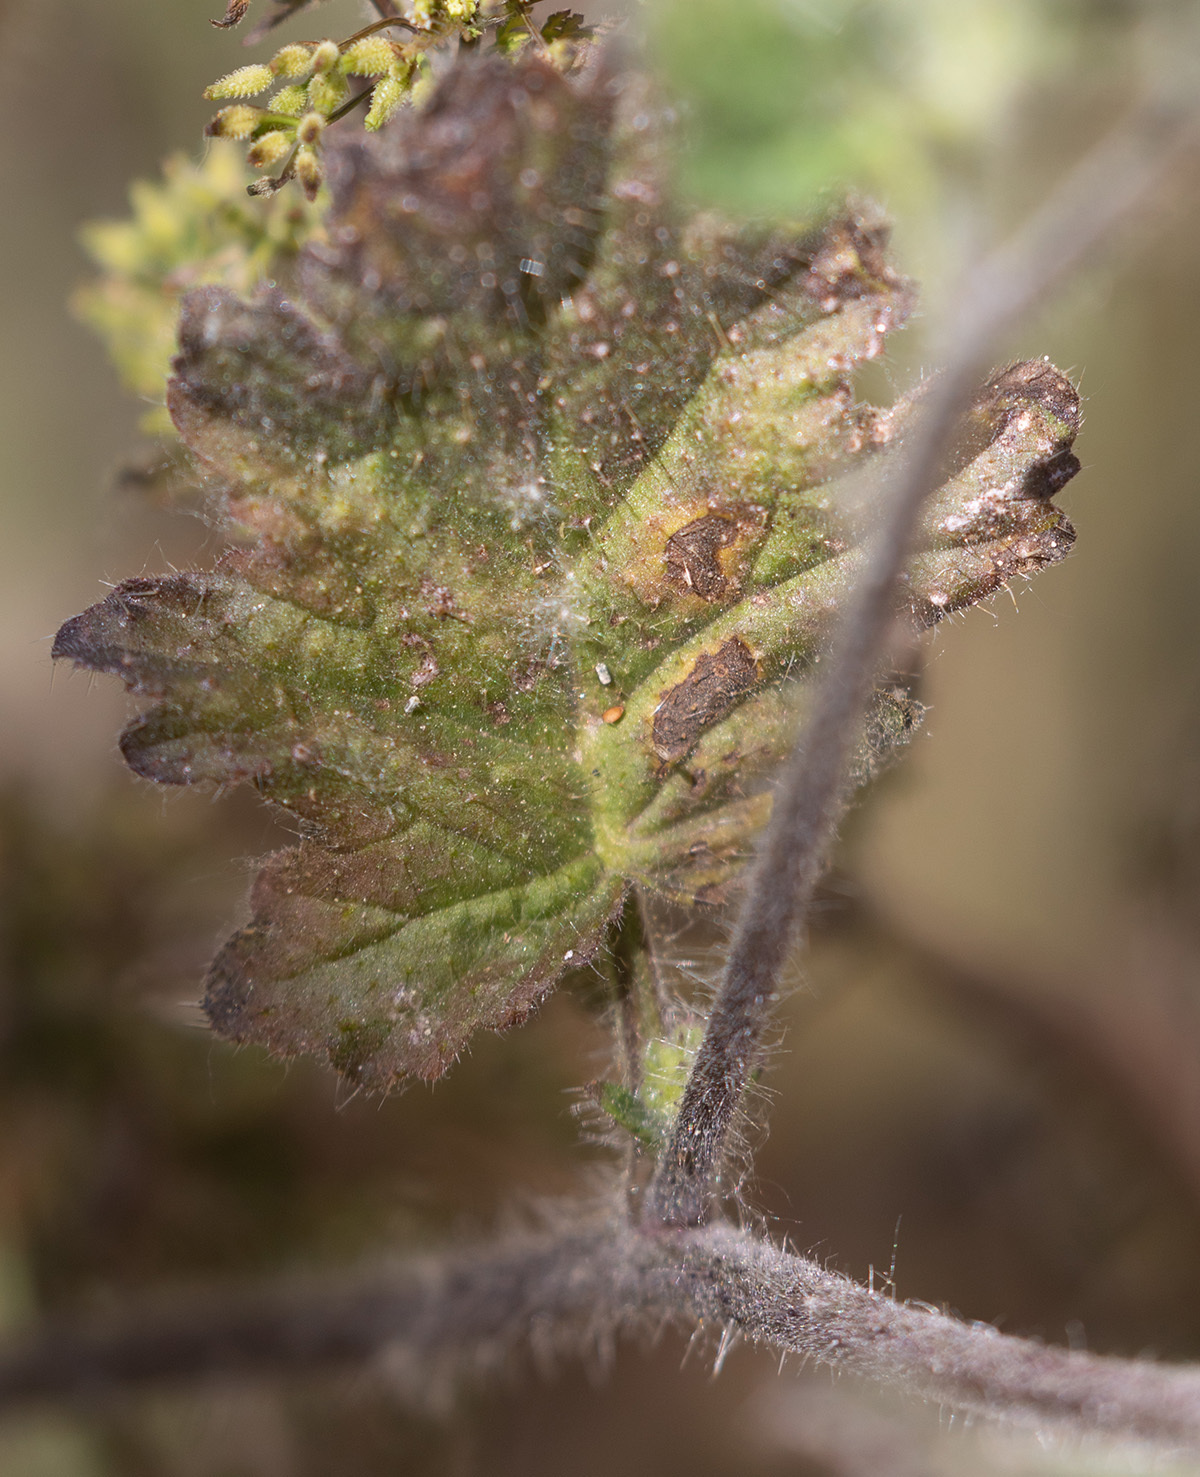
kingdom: Plantae
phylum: Tracheophyta
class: Magnoliopsida
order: Boraginales
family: Hydrophyllaceae
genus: Phacelia
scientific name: Phacelia malvifolia
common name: Mallow-leaf phacelia
